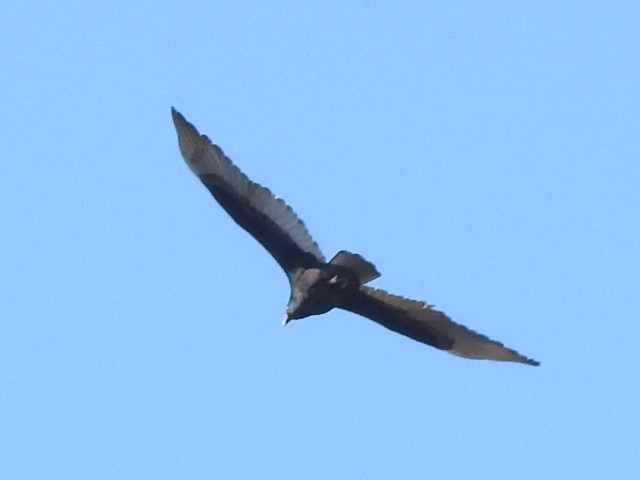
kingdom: Animalia
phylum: Chordata
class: Aves
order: Accipitriformes
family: Cathartidae
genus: Cathartes
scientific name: Cathartes aura
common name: Turkey vulture
